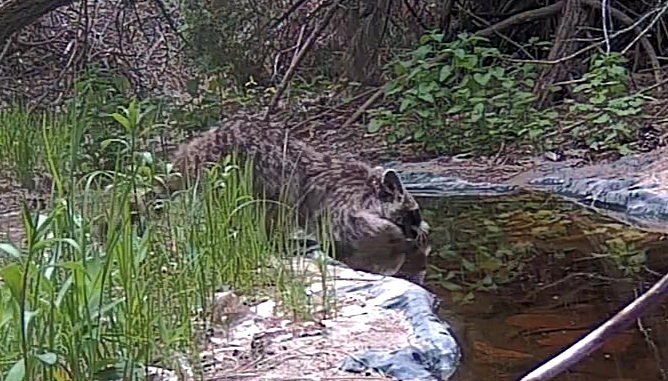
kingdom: Animalia
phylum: Chordata
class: Mammalia
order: Carnivora
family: Procyonidae
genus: Procyon
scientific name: Procyon lotor
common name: Raccoon
